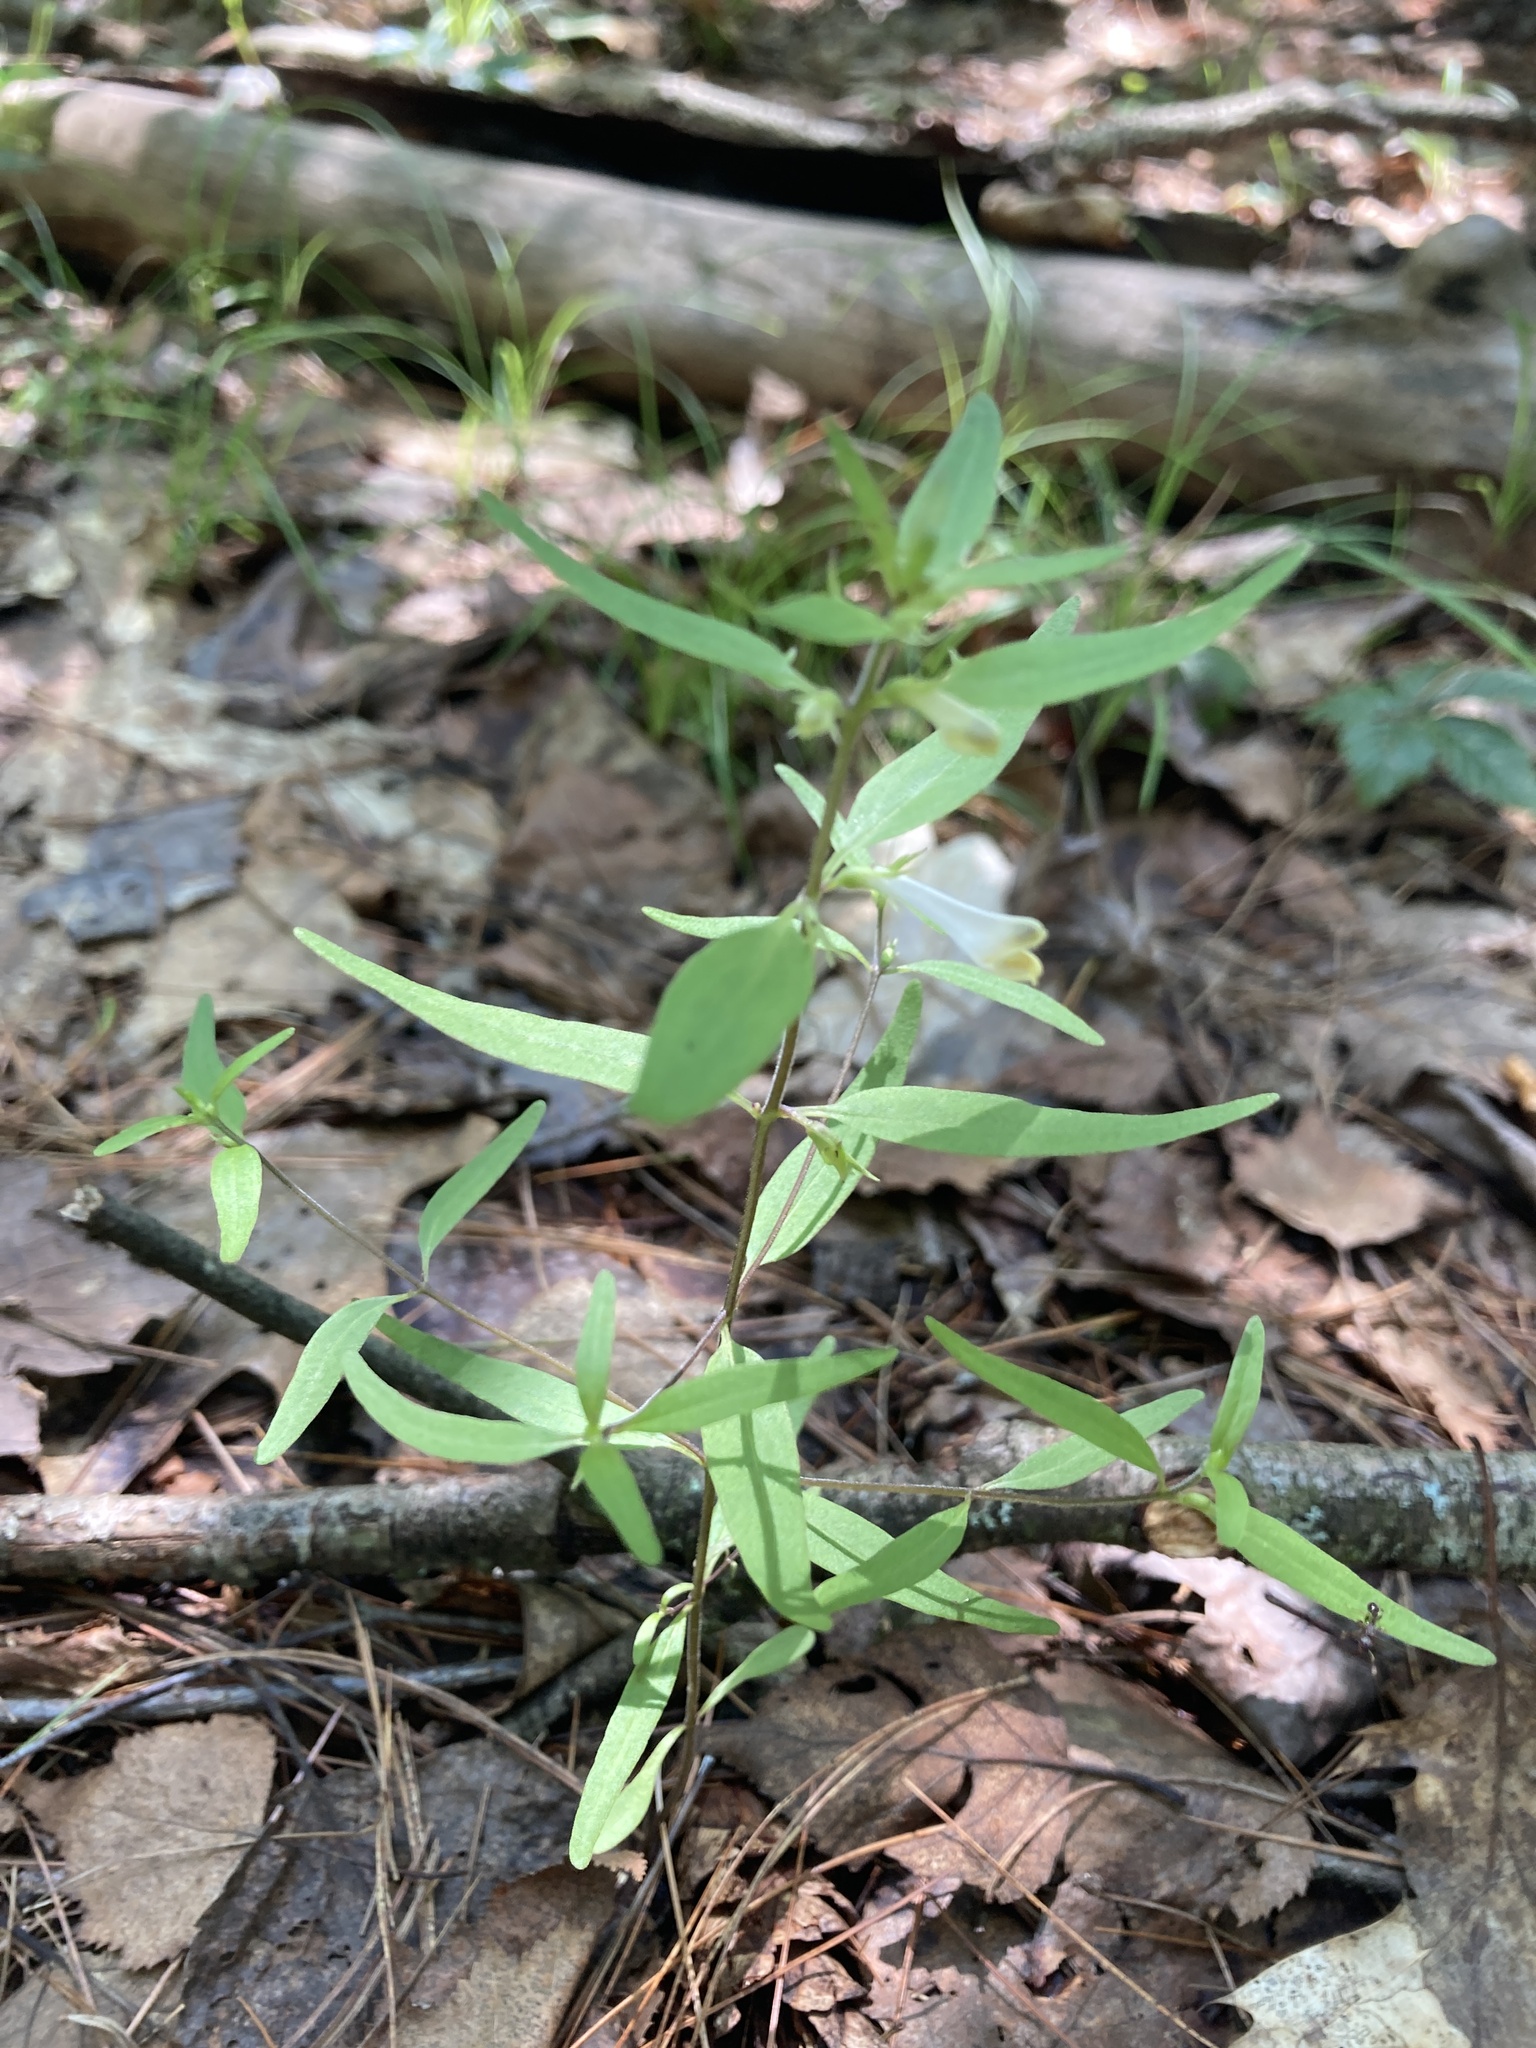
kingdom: Plantae
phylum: Tracheophyta
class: Magnoliopsida
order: Lamiales
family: Orobanchaceae
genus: Melampyrum
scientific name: Melampyrum lineare
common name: American cow-wheat
